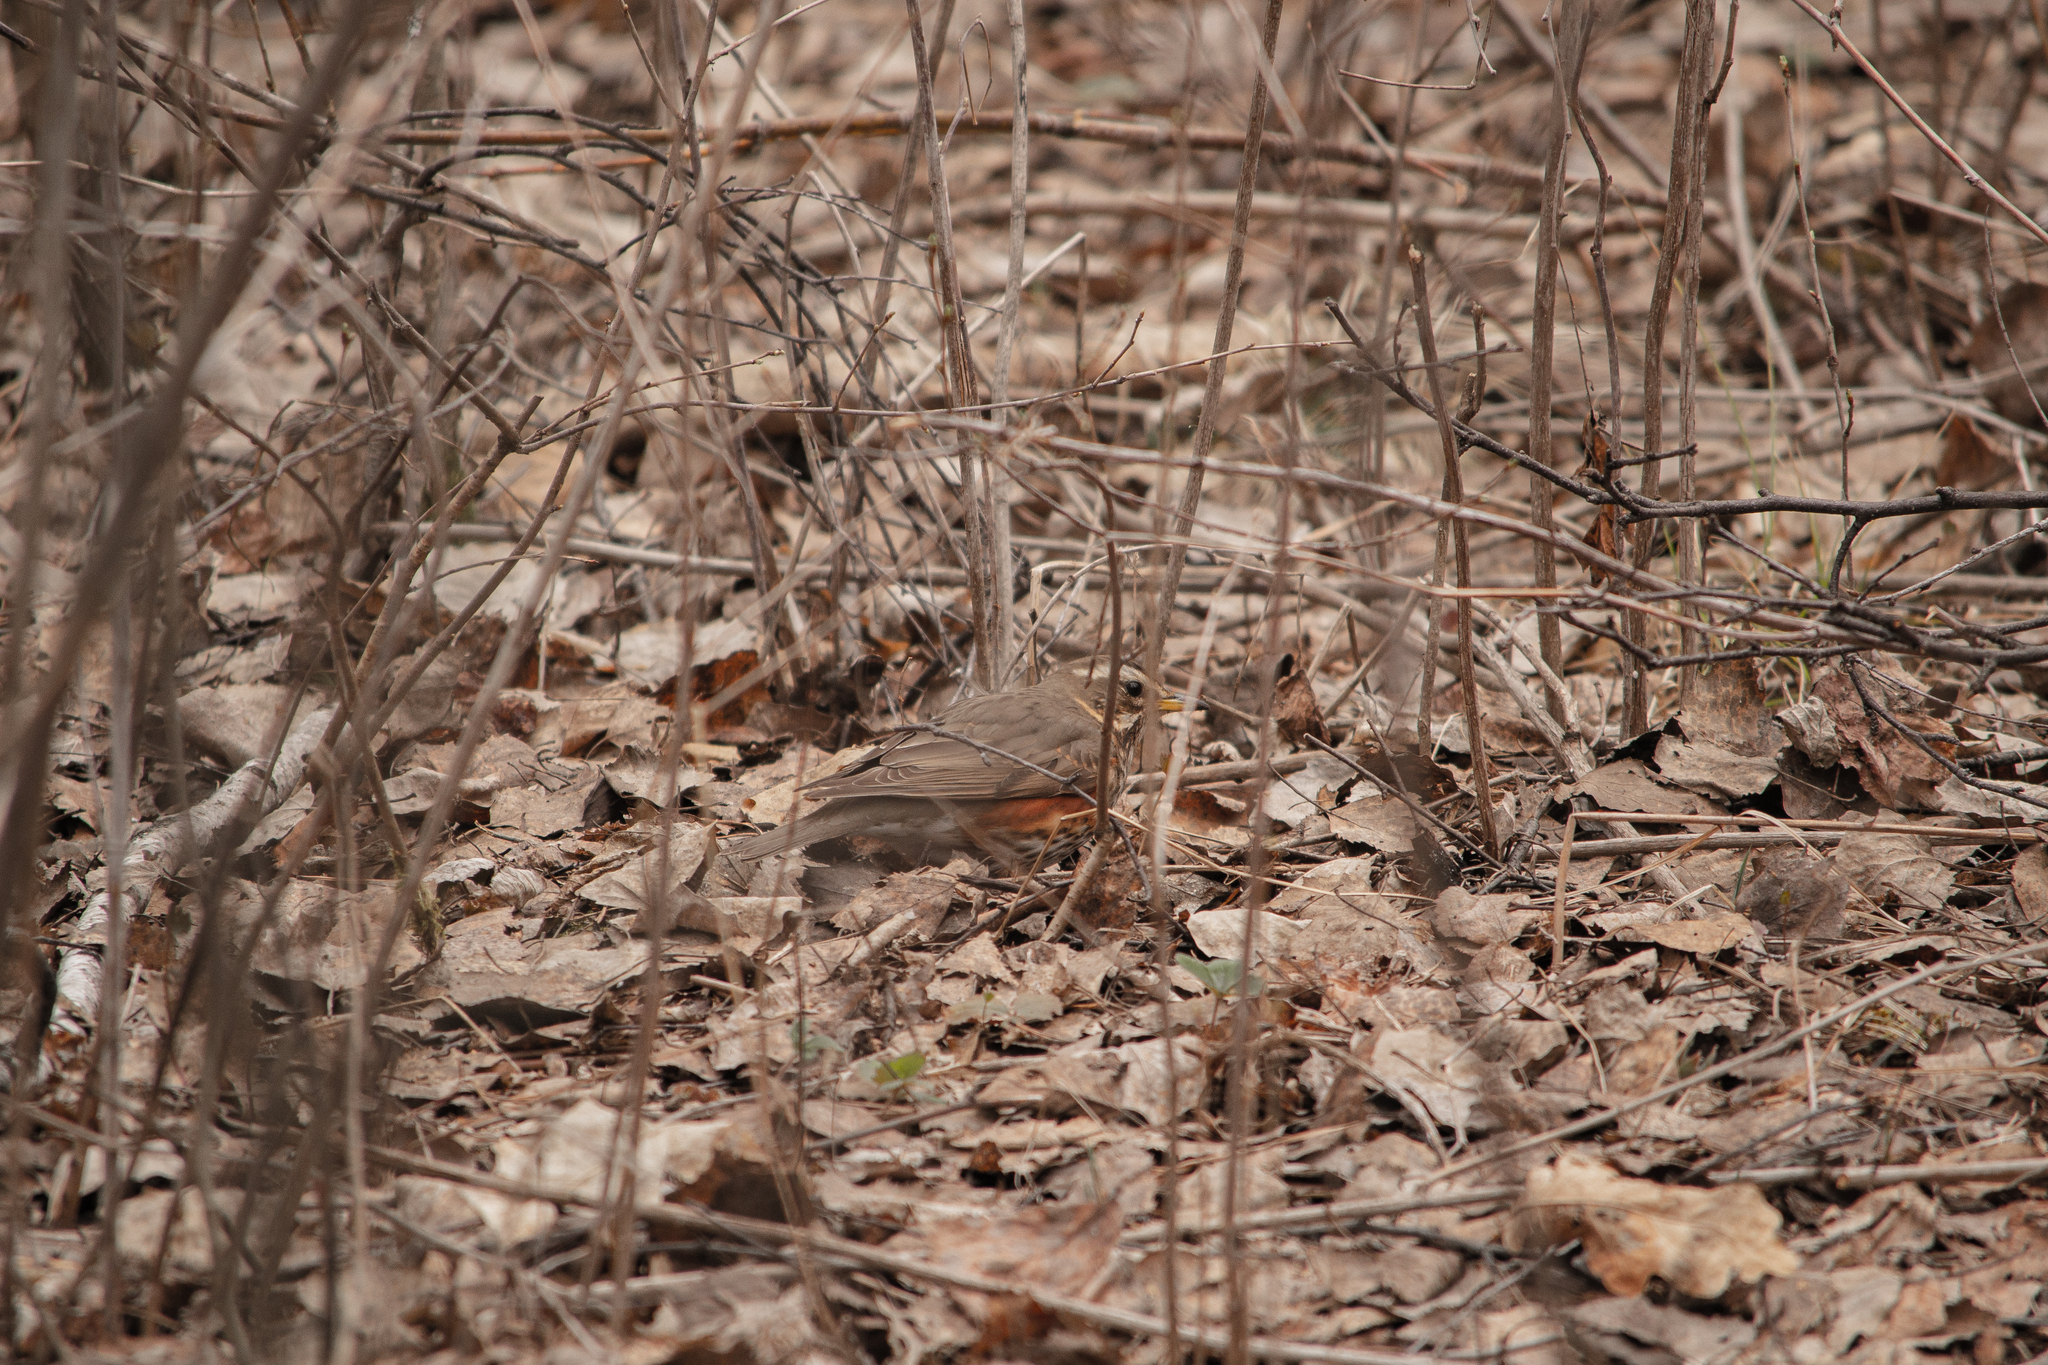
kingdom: Animalia
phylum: Chordata
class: Aves
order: Passeriformes
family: Turdidae
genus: Turdus
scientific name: Turdus iliacus
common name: Redwing
